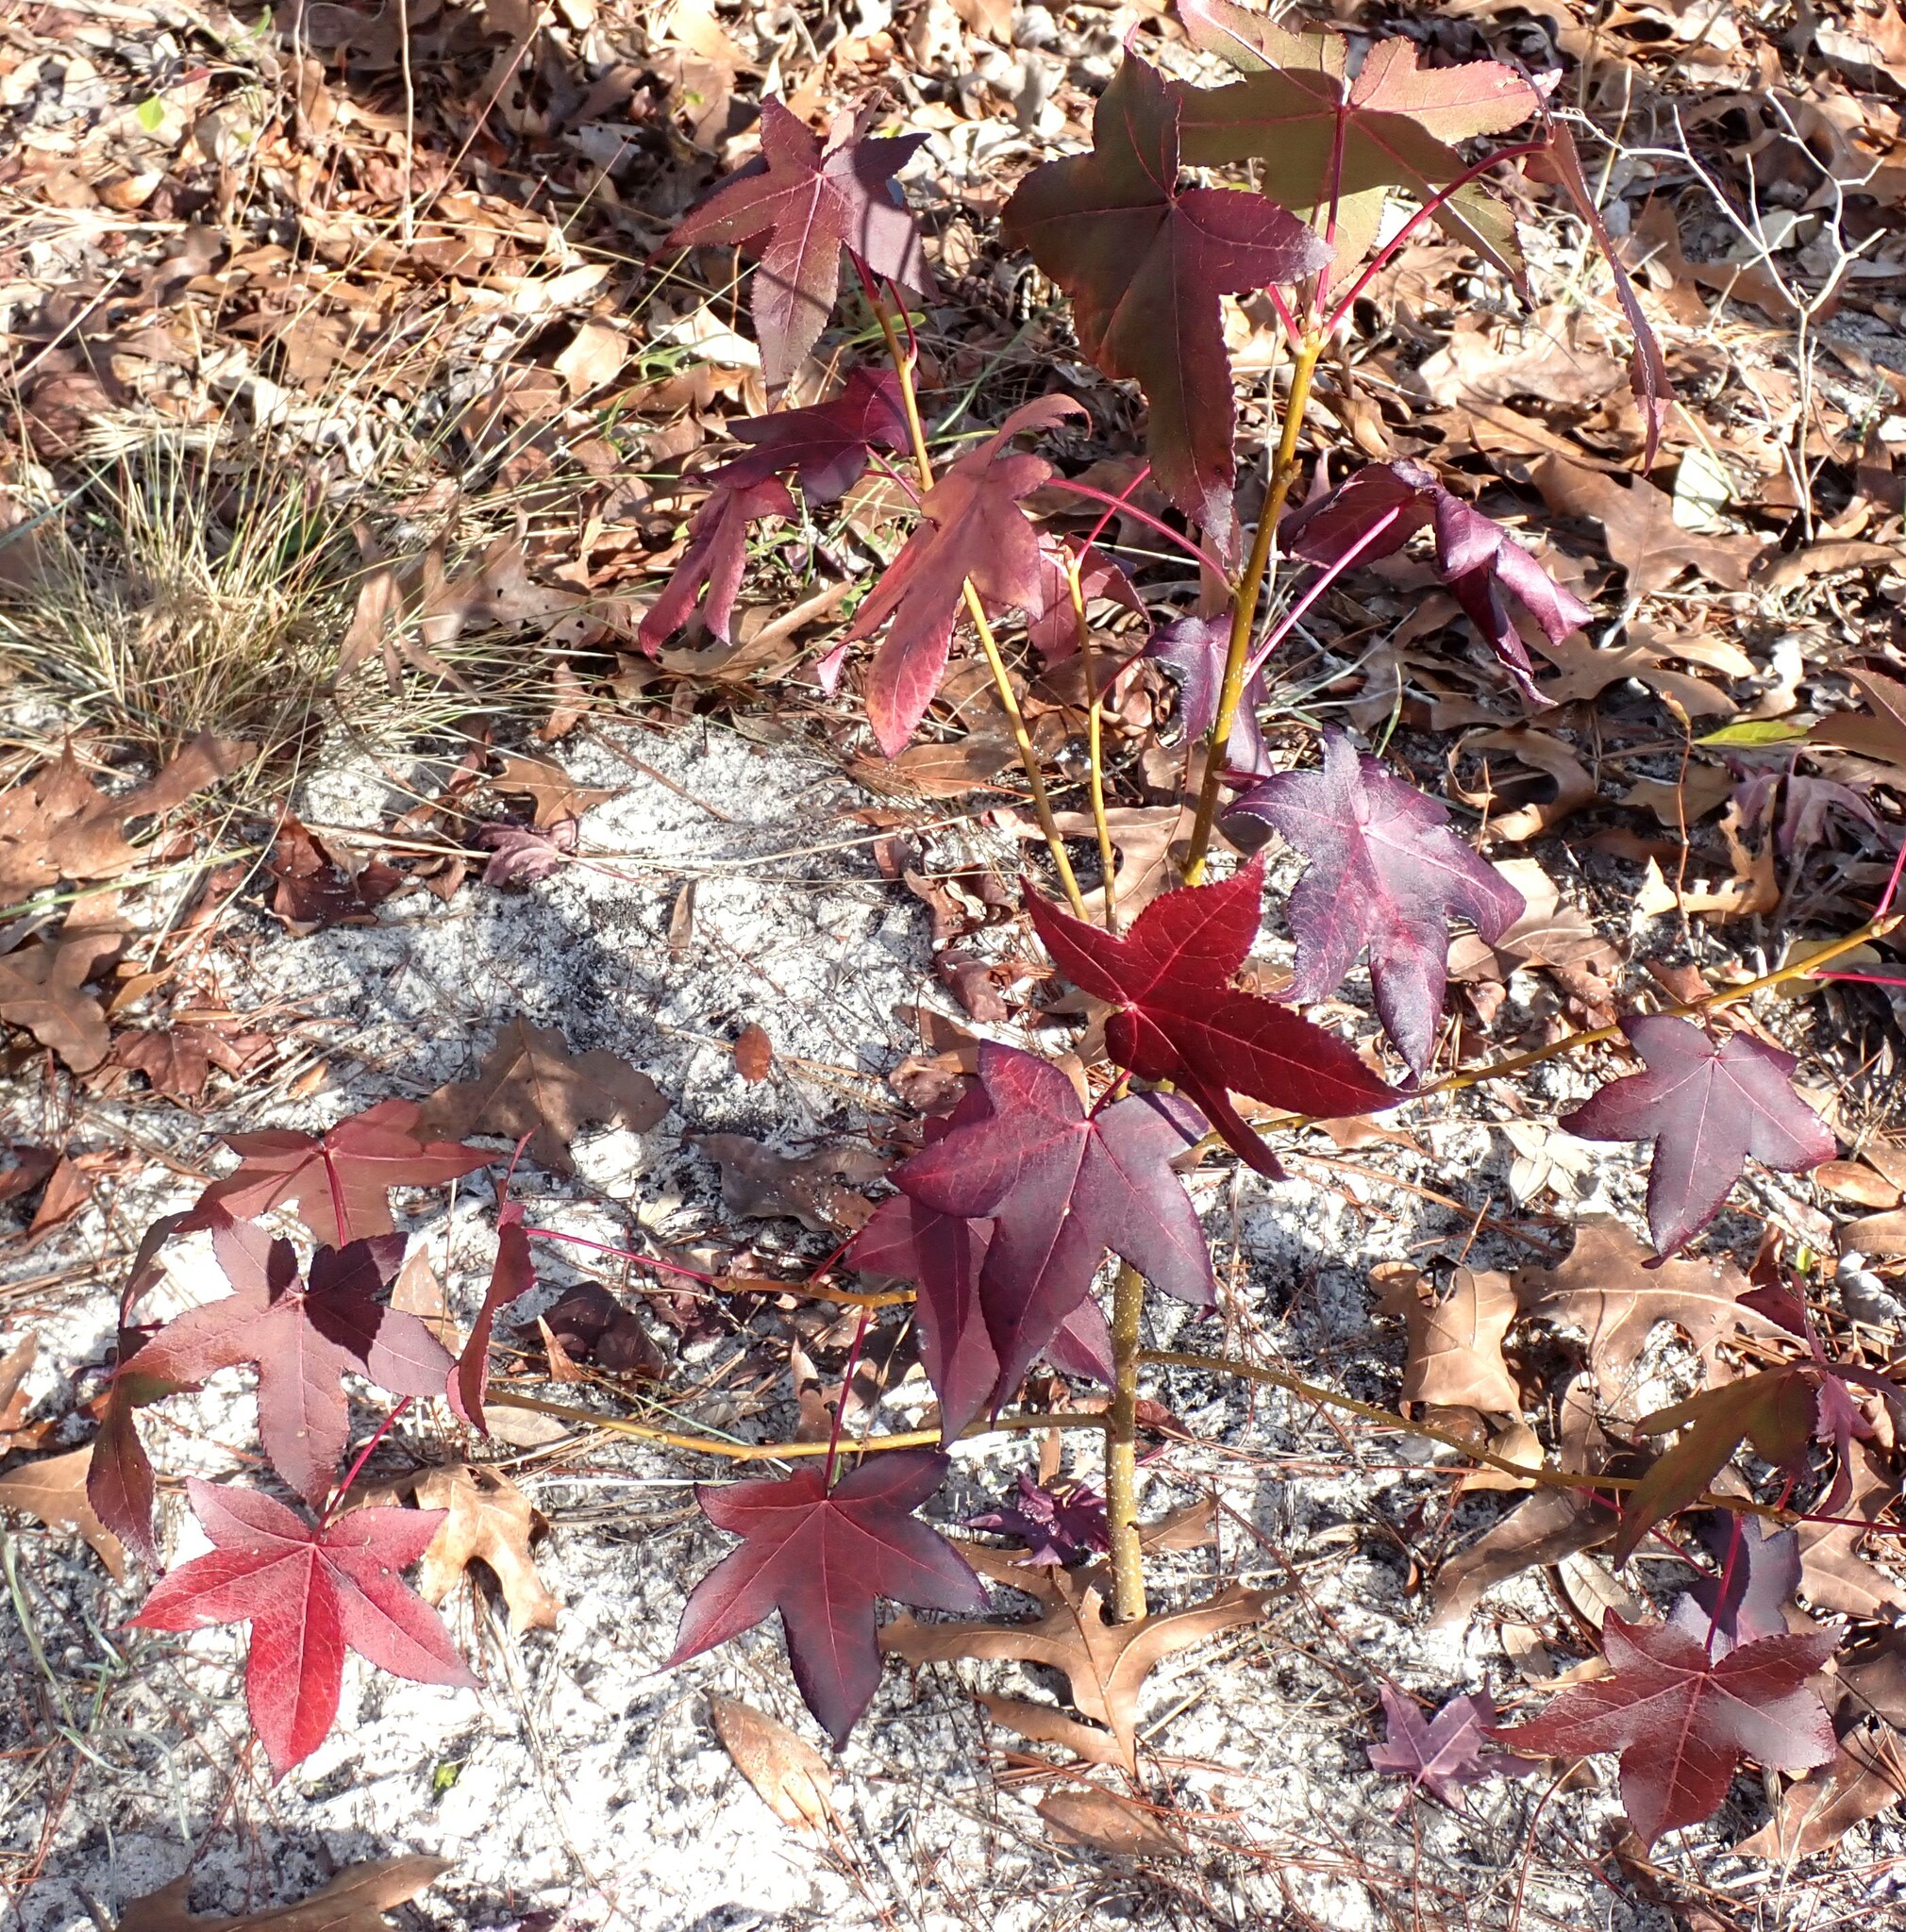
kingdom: Plantae
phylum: Tracheophyta
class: Magnoliopsida
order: Saxifragales
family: Altingiaceae
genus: Liquidambar
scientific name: Liquidambar styraciflua
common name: Sweet gum
